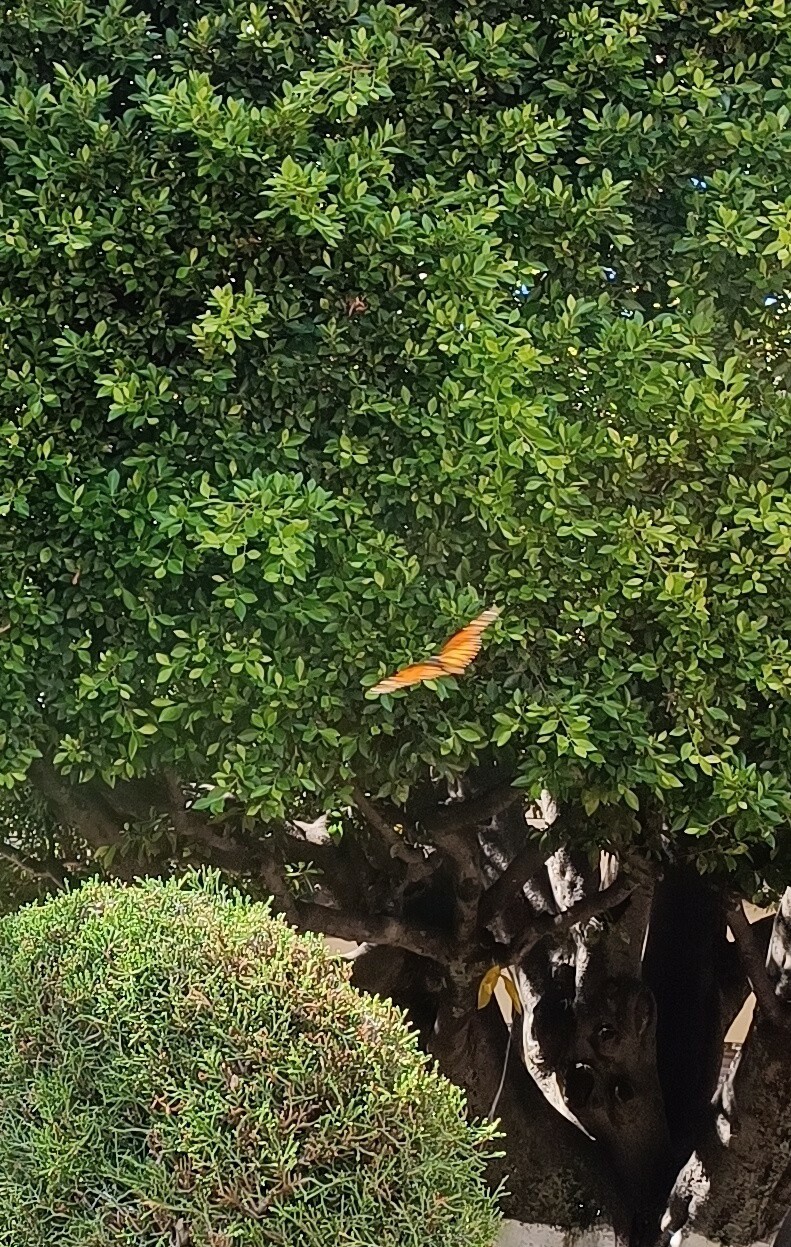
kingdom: Animalia
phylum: Arthropoda
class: Insecta
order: Lepidoptera
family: Nymphalidae
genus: Danaus
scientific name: Danaus plexippus
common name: Monarch
